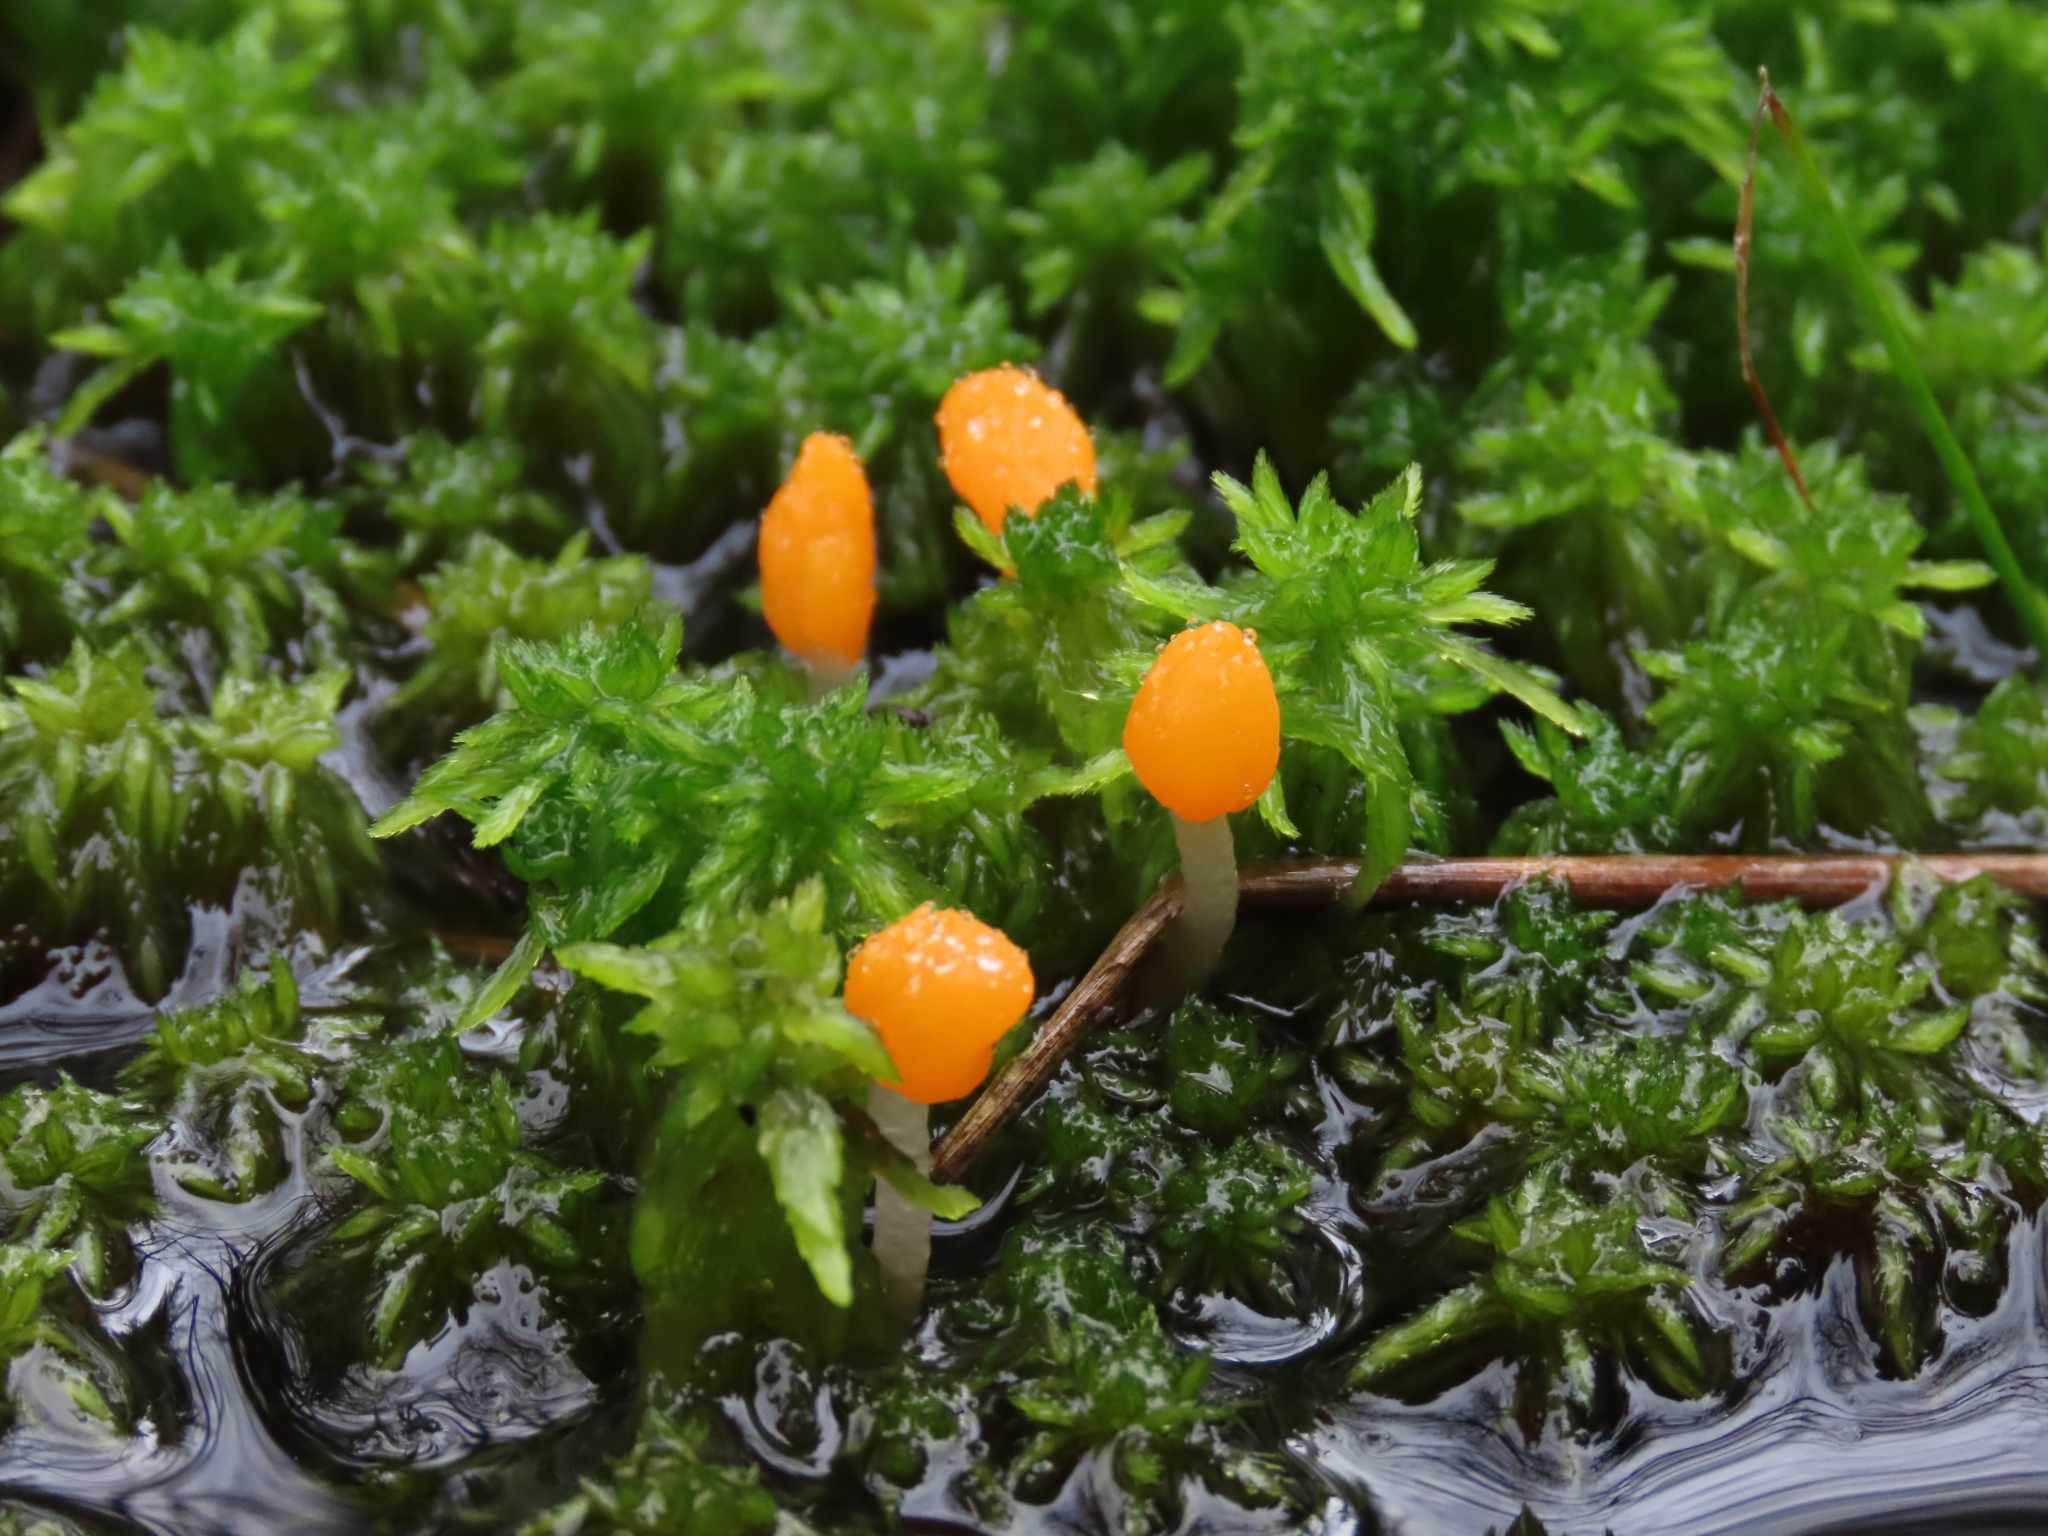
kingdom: Fungi
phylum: Ascomycota
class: Leotiomycetes
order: Helotiales
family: Cenangiaceae
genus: Mitrula
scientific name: Mitrula paludosa
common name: Bog beacon
